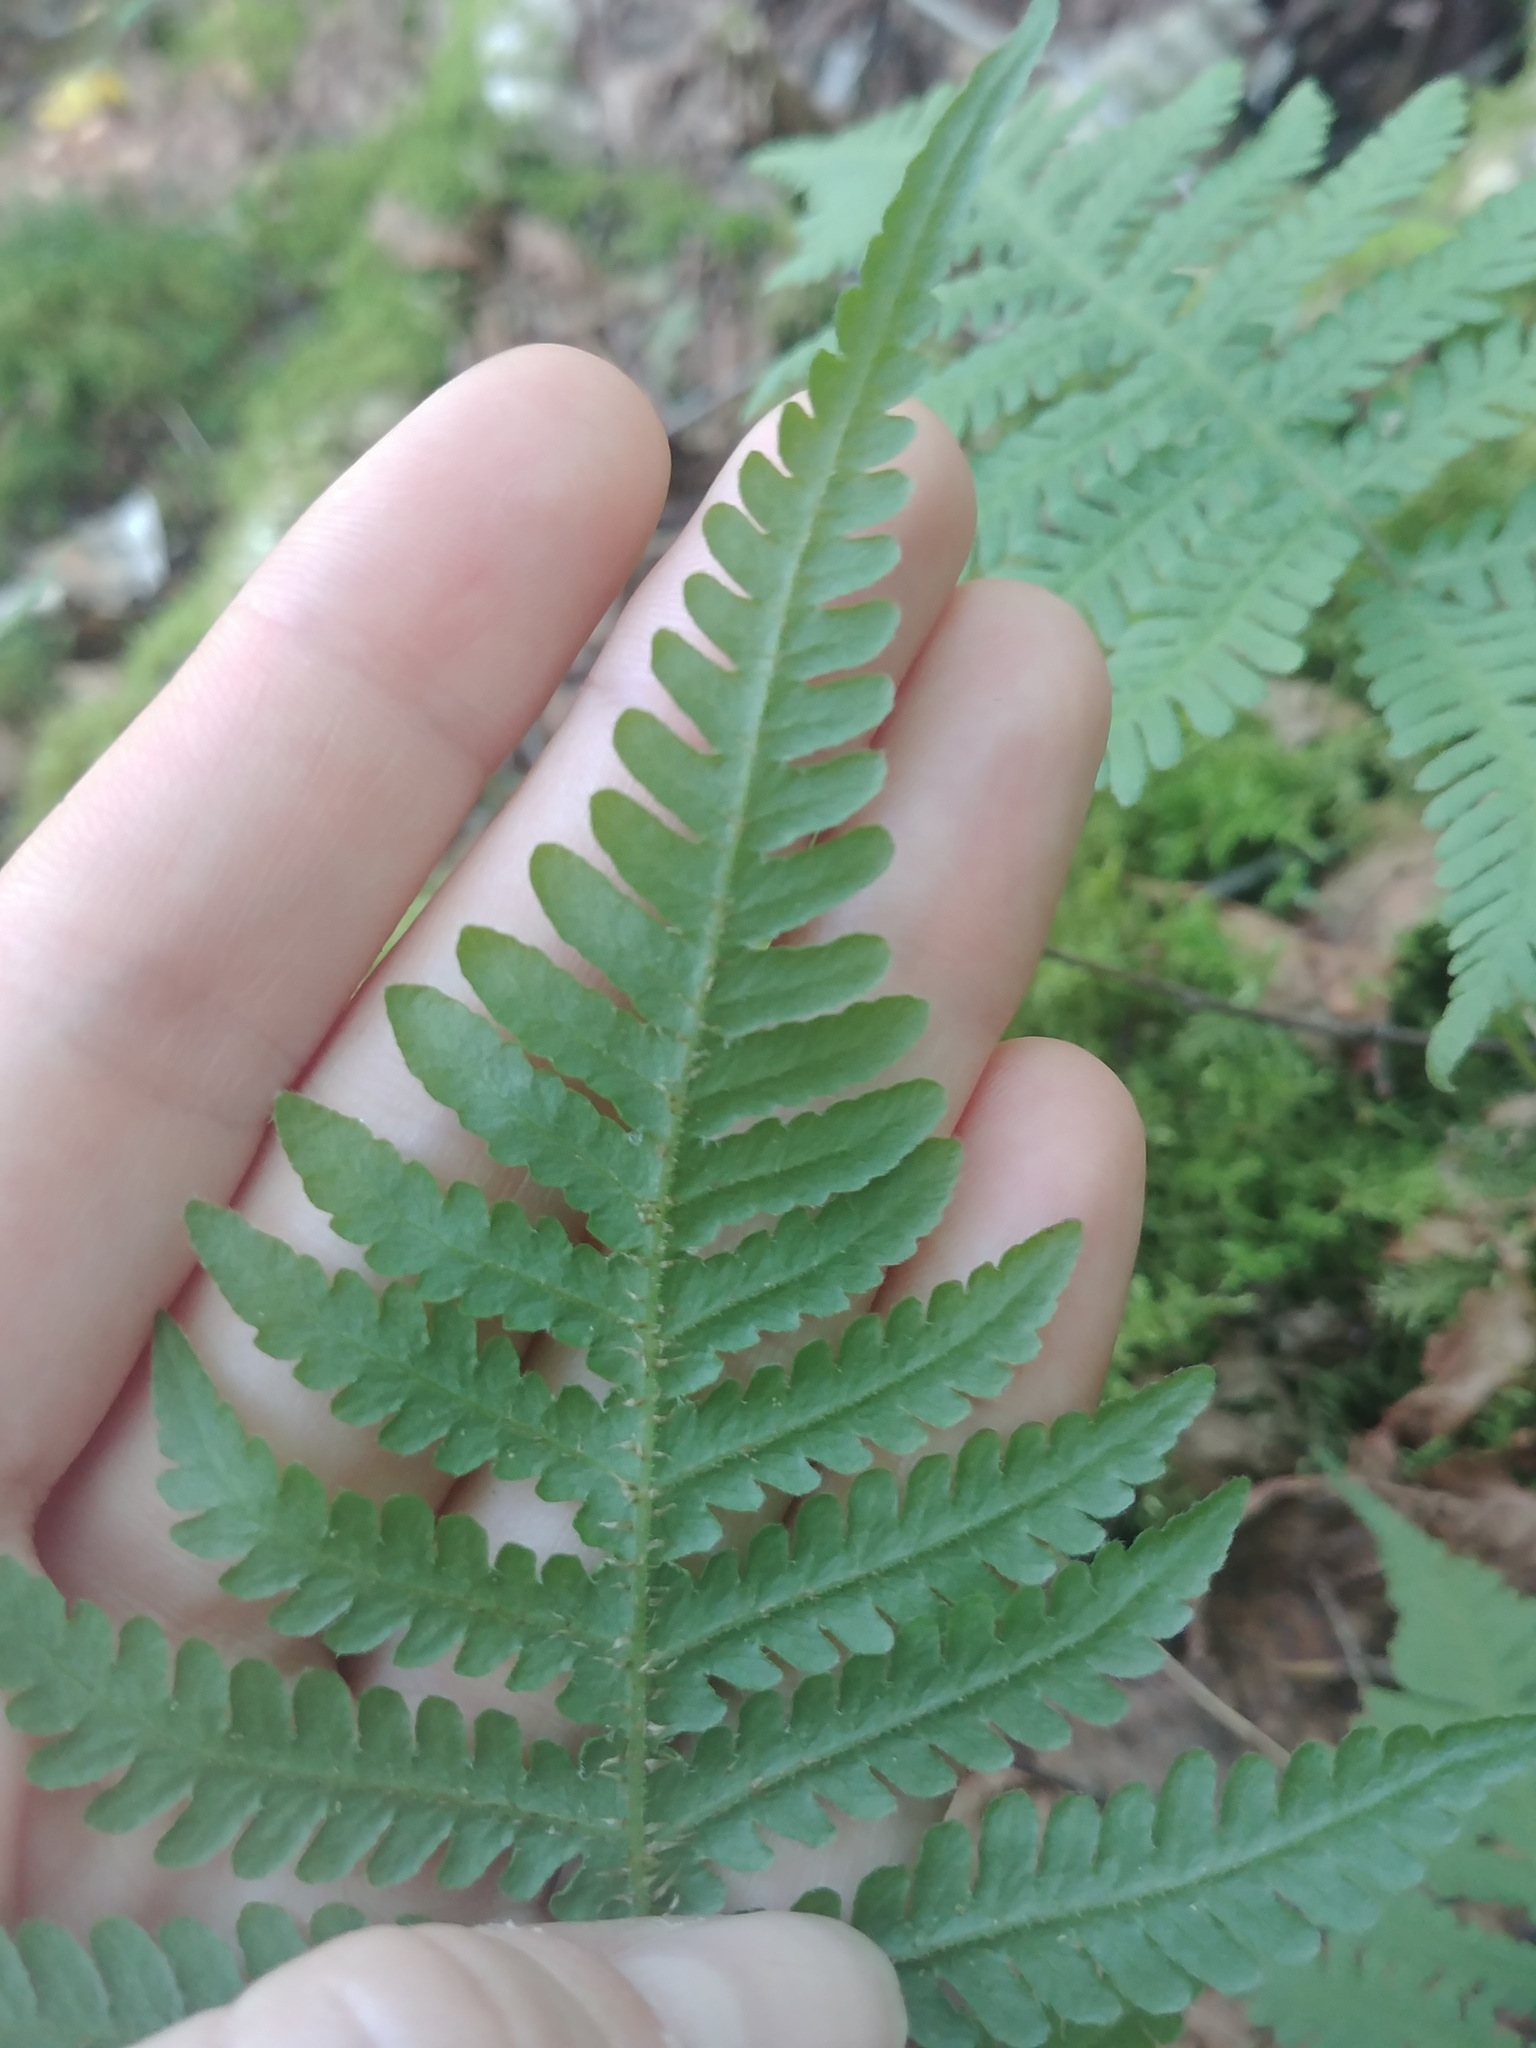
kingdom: Plantae
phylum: Tracheophyta
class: Polypodiopsida
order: Polypodiales
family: Thelypteridaceae
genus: Phegopteris
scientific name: Phegopteris connectilis
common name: Beech fern
